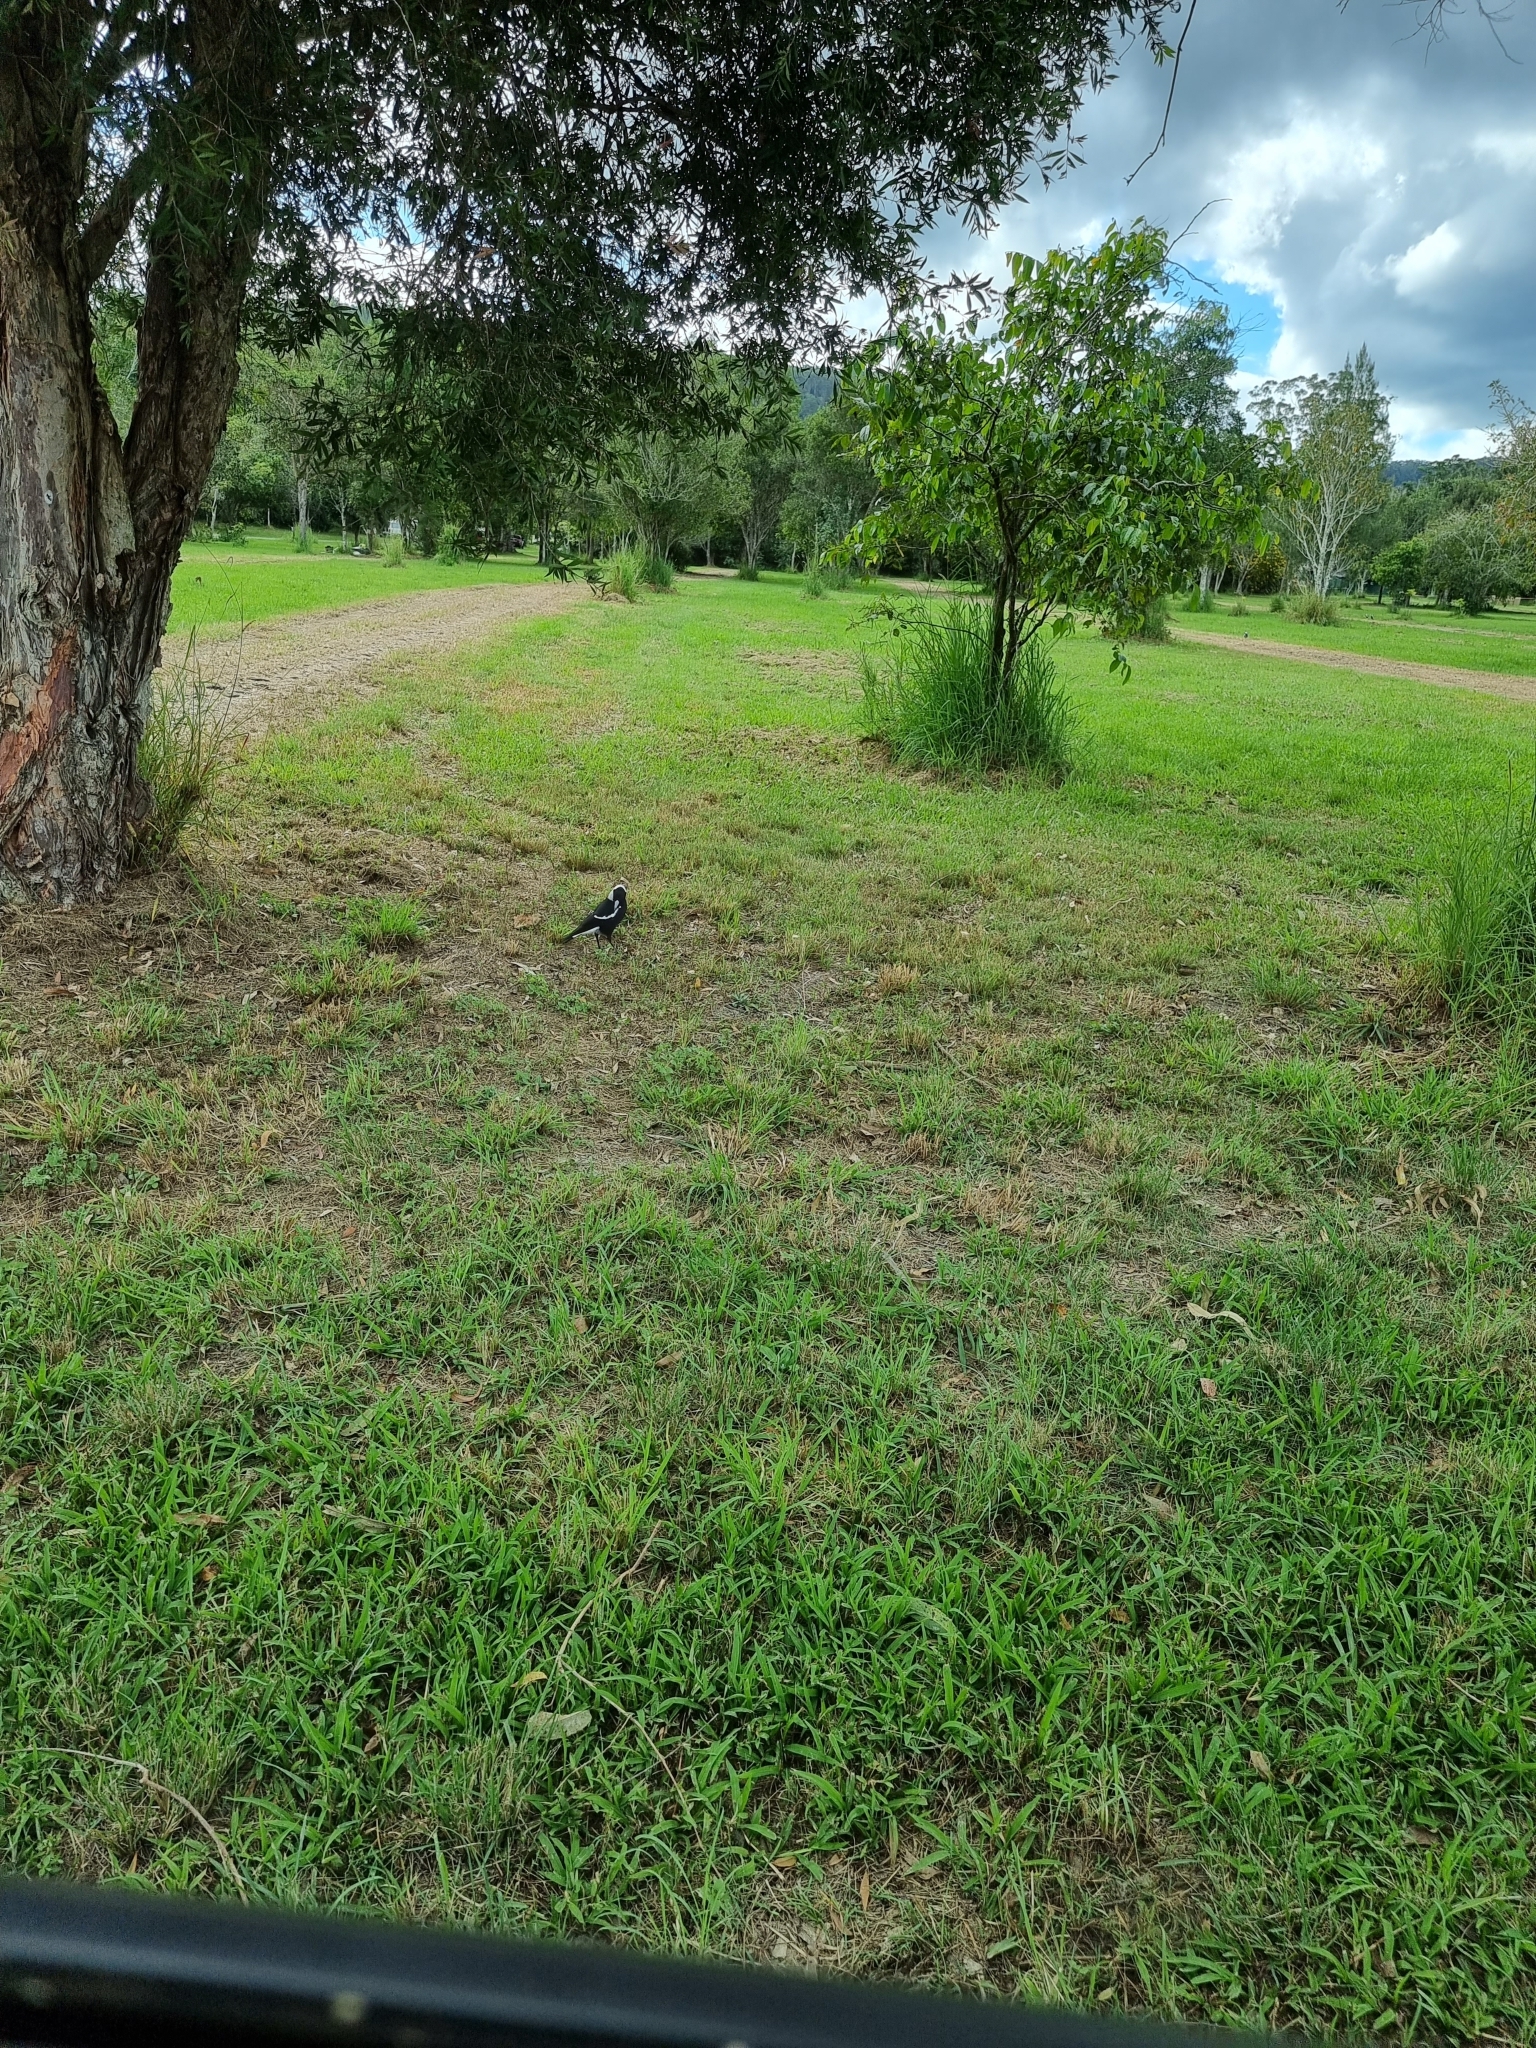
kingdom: Animalia
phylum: Chordata
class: Aves
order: Passeriformes
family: Cracticidae
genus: Gymnorhina
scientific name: Gymnorhina tibicen
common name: Australian magpie
